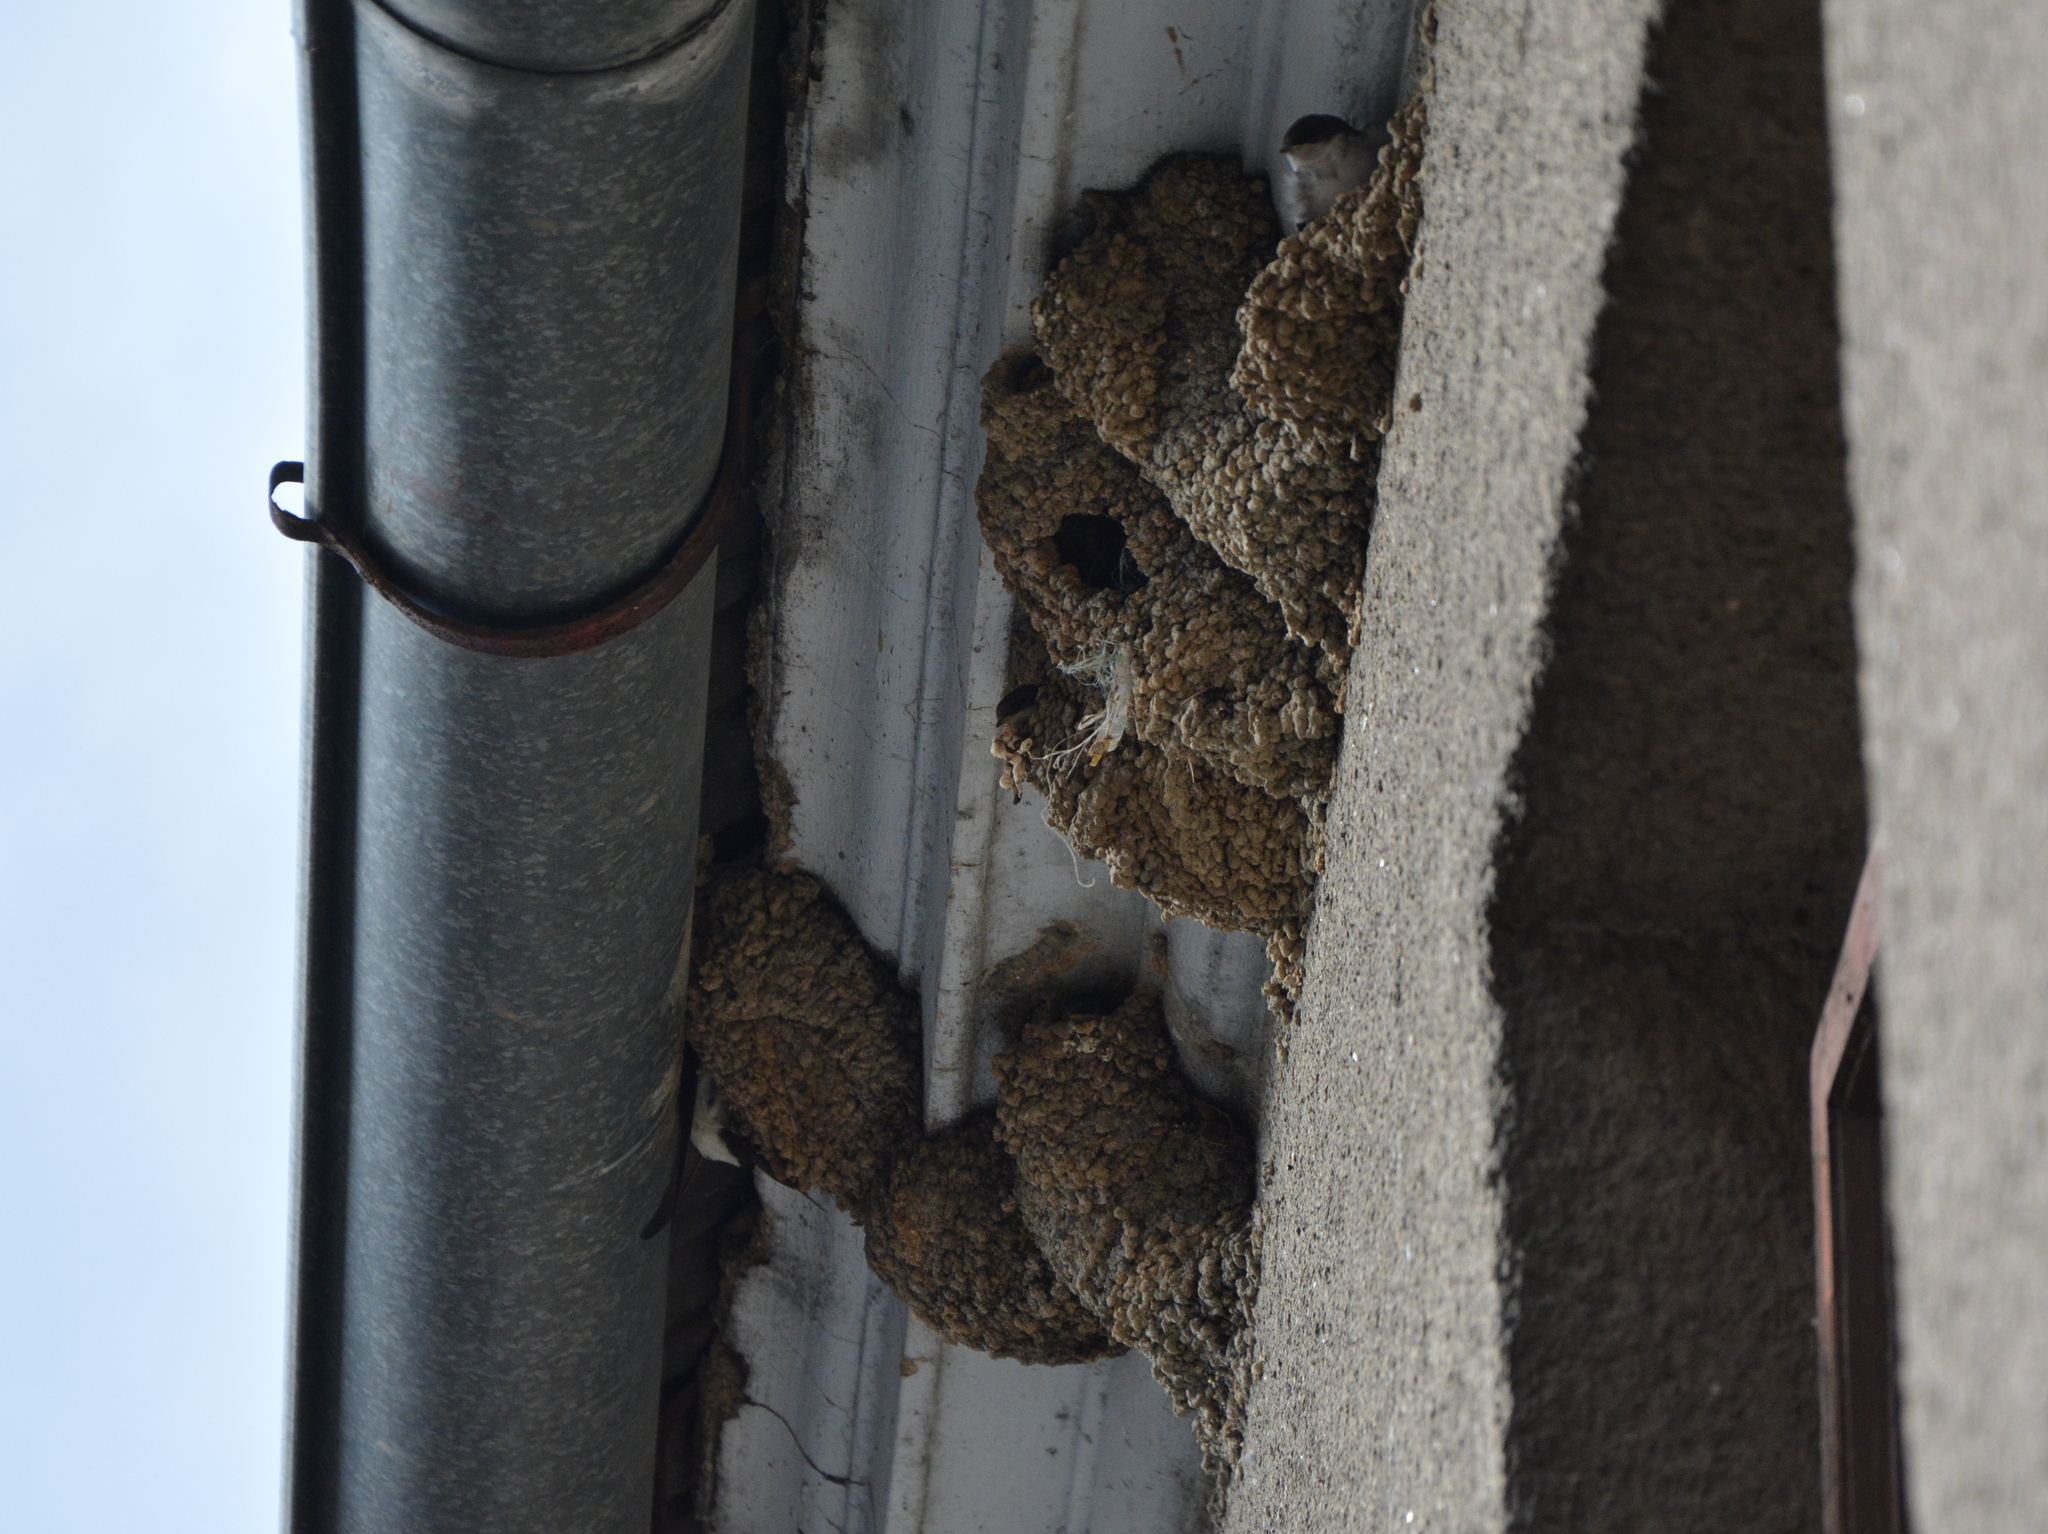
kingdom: Animalia
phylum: Chordata
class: Aves
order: Passeriformes
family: Hirundinidae
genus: Delichon
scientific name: Delichon urbicum
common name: Common house martin
